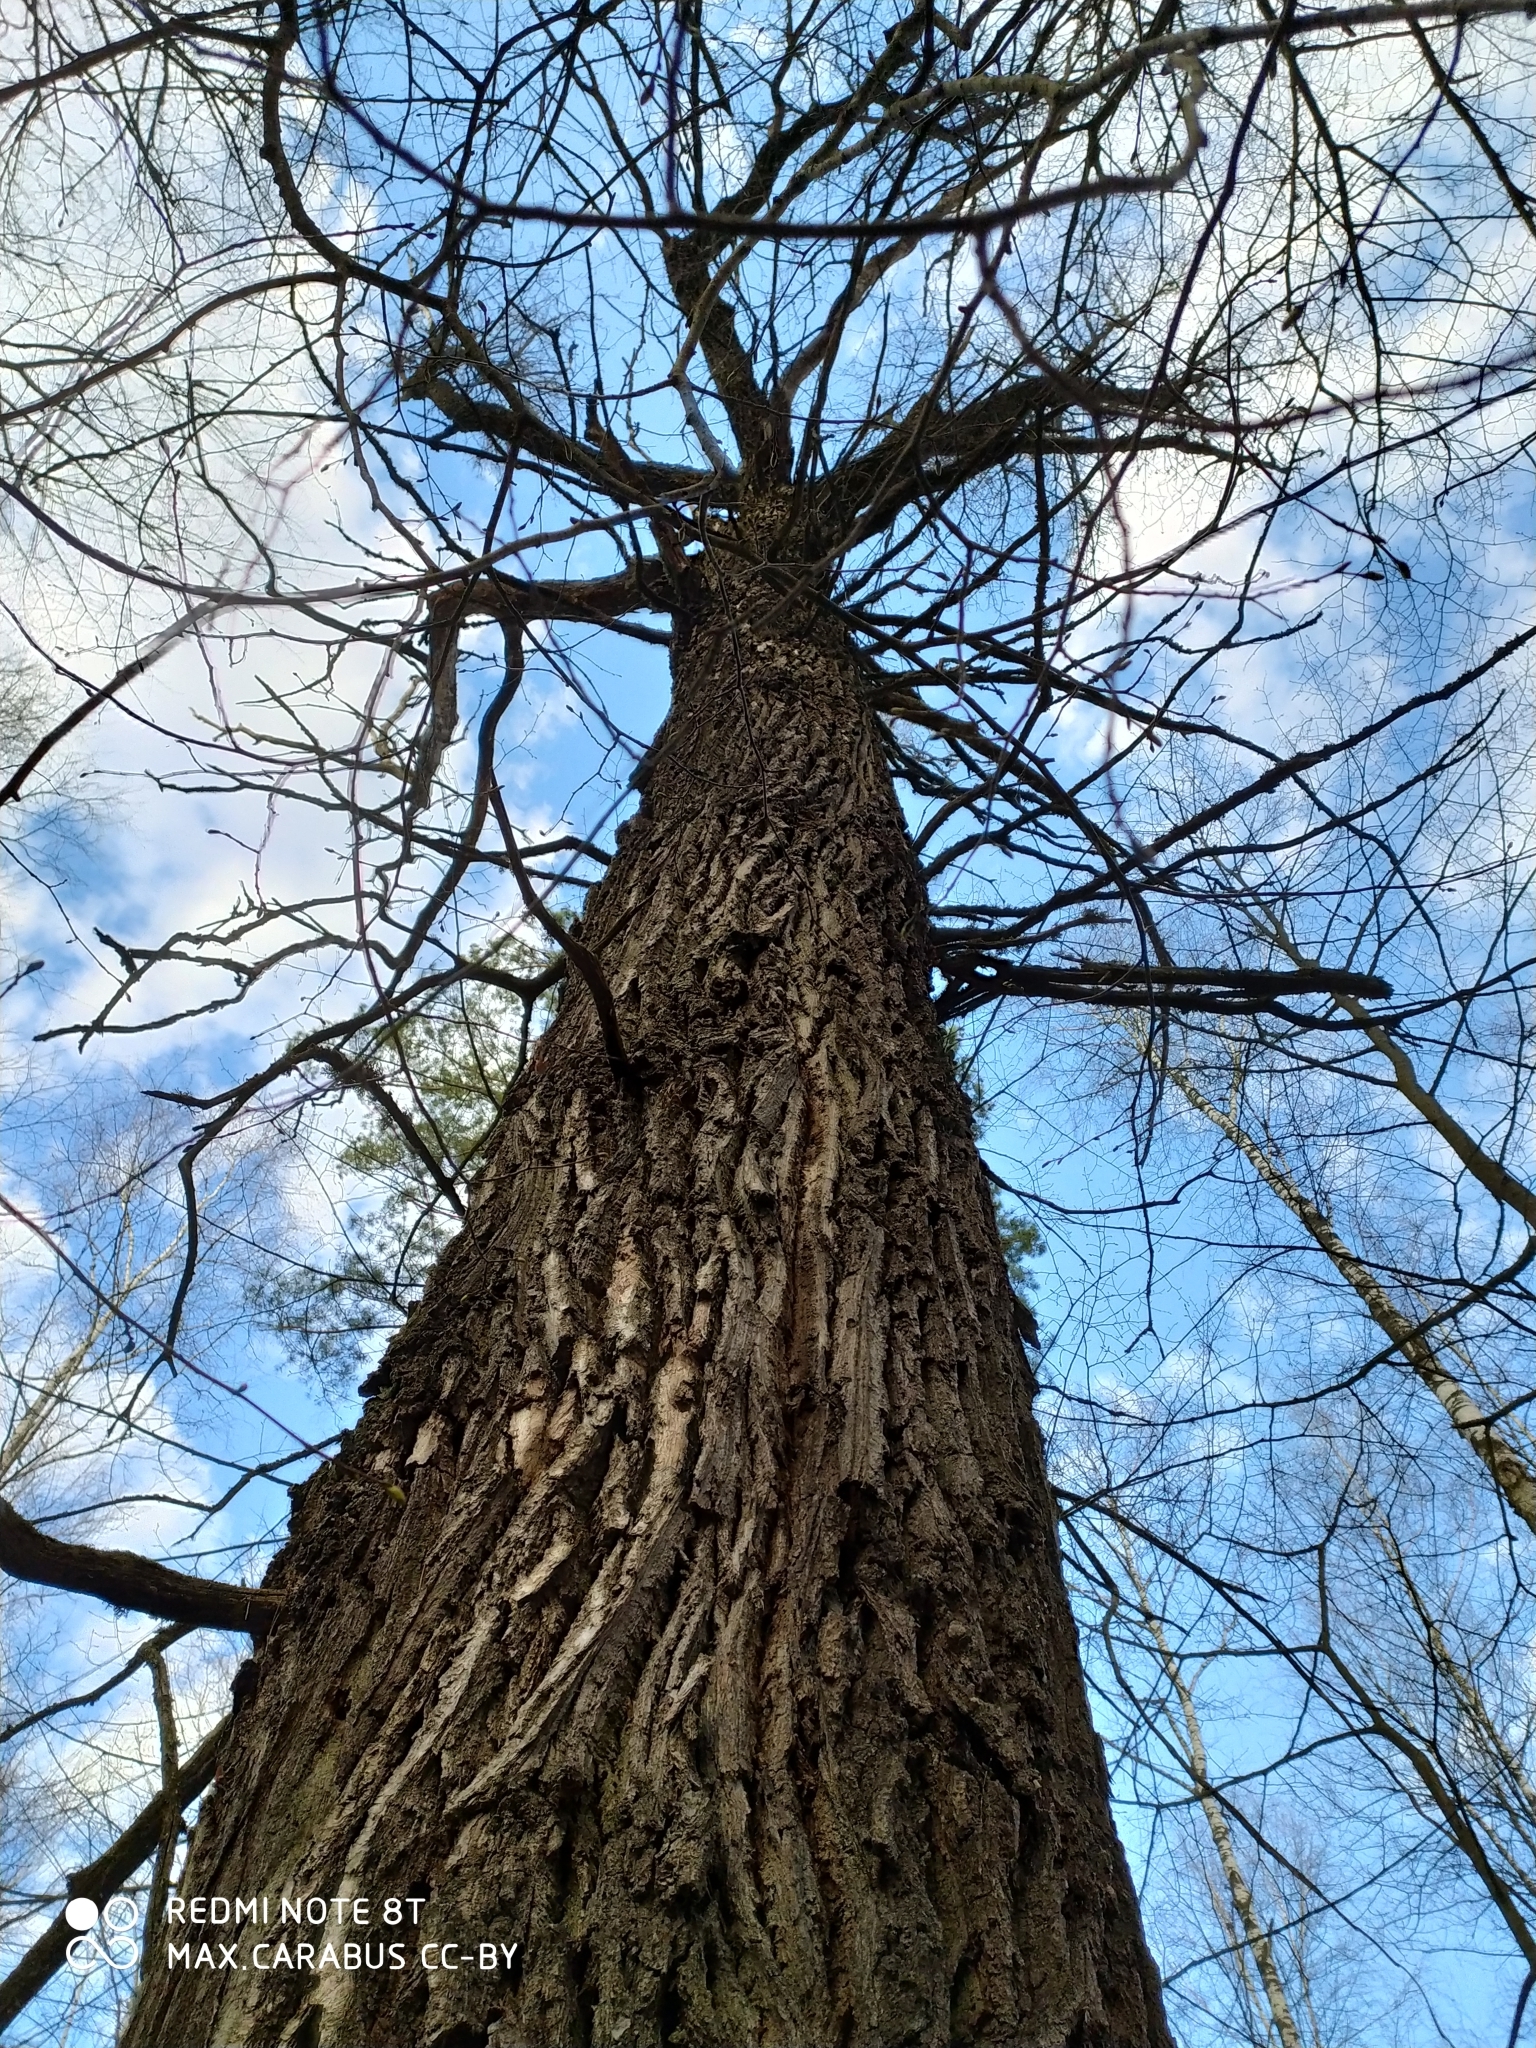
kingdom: Plantae
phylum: Tracheophyta
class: Magnoliopsida
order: Fagales
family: Fagaceae
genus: Quercus
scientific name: Quercus robur
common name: Pedunculate oak
